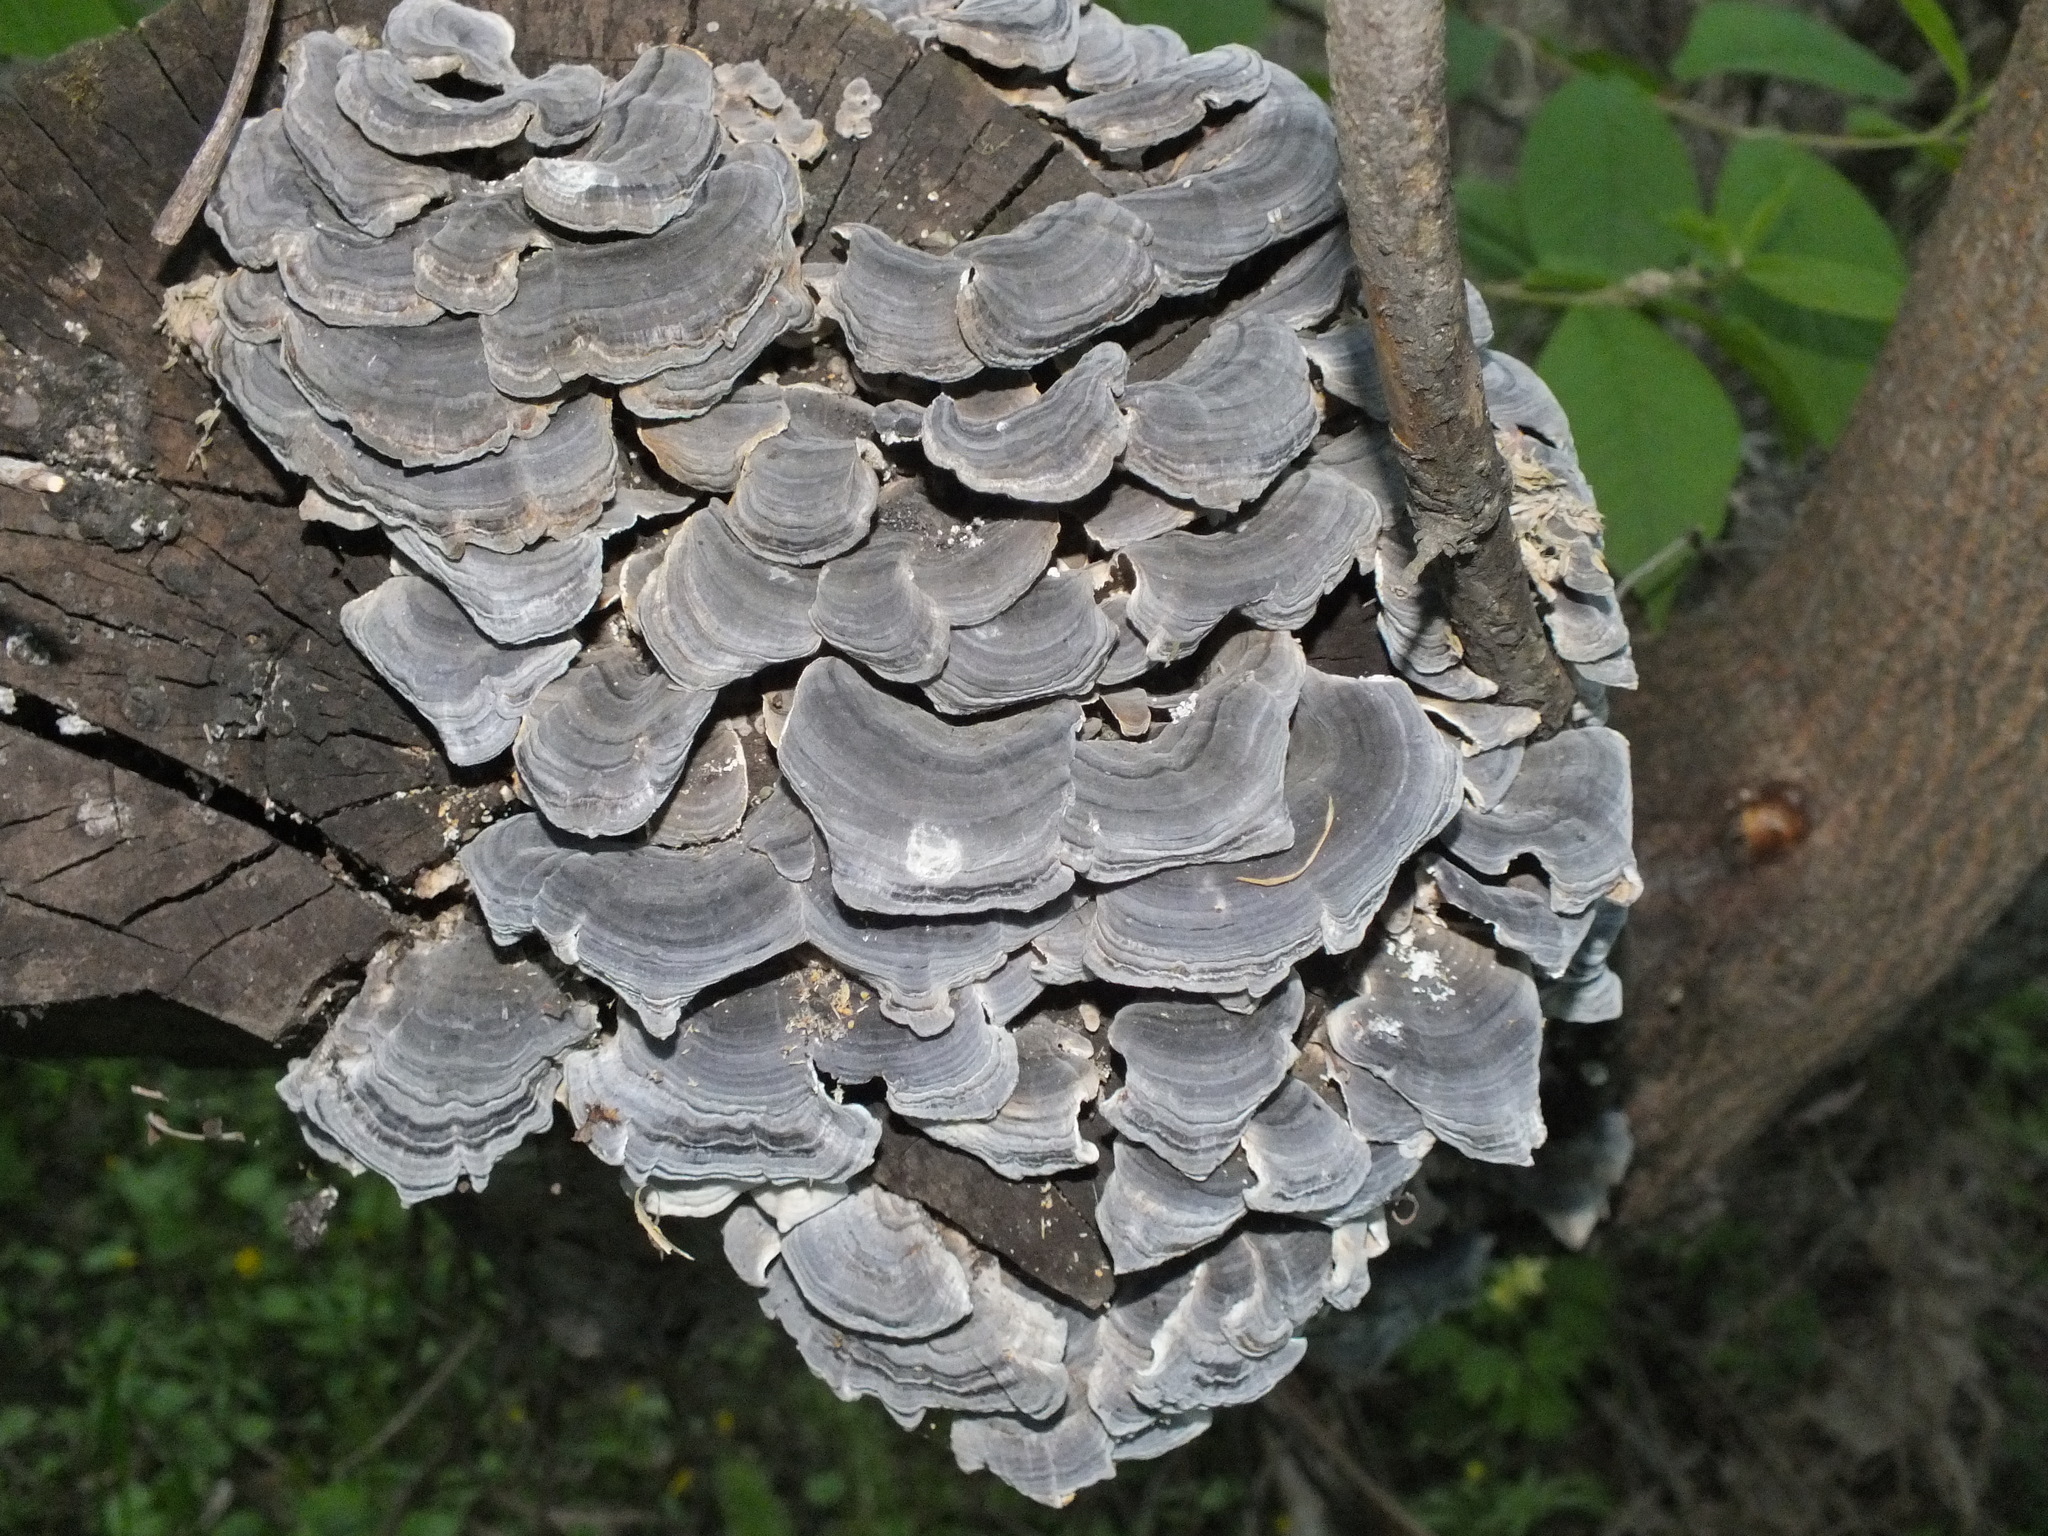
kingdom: Fungi
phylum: Basidiomycota
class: Agaricomycetes
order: Polyporales
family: Polyporaceae
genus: Trametes
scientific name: Trametes versicolor
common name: Turkeytail
